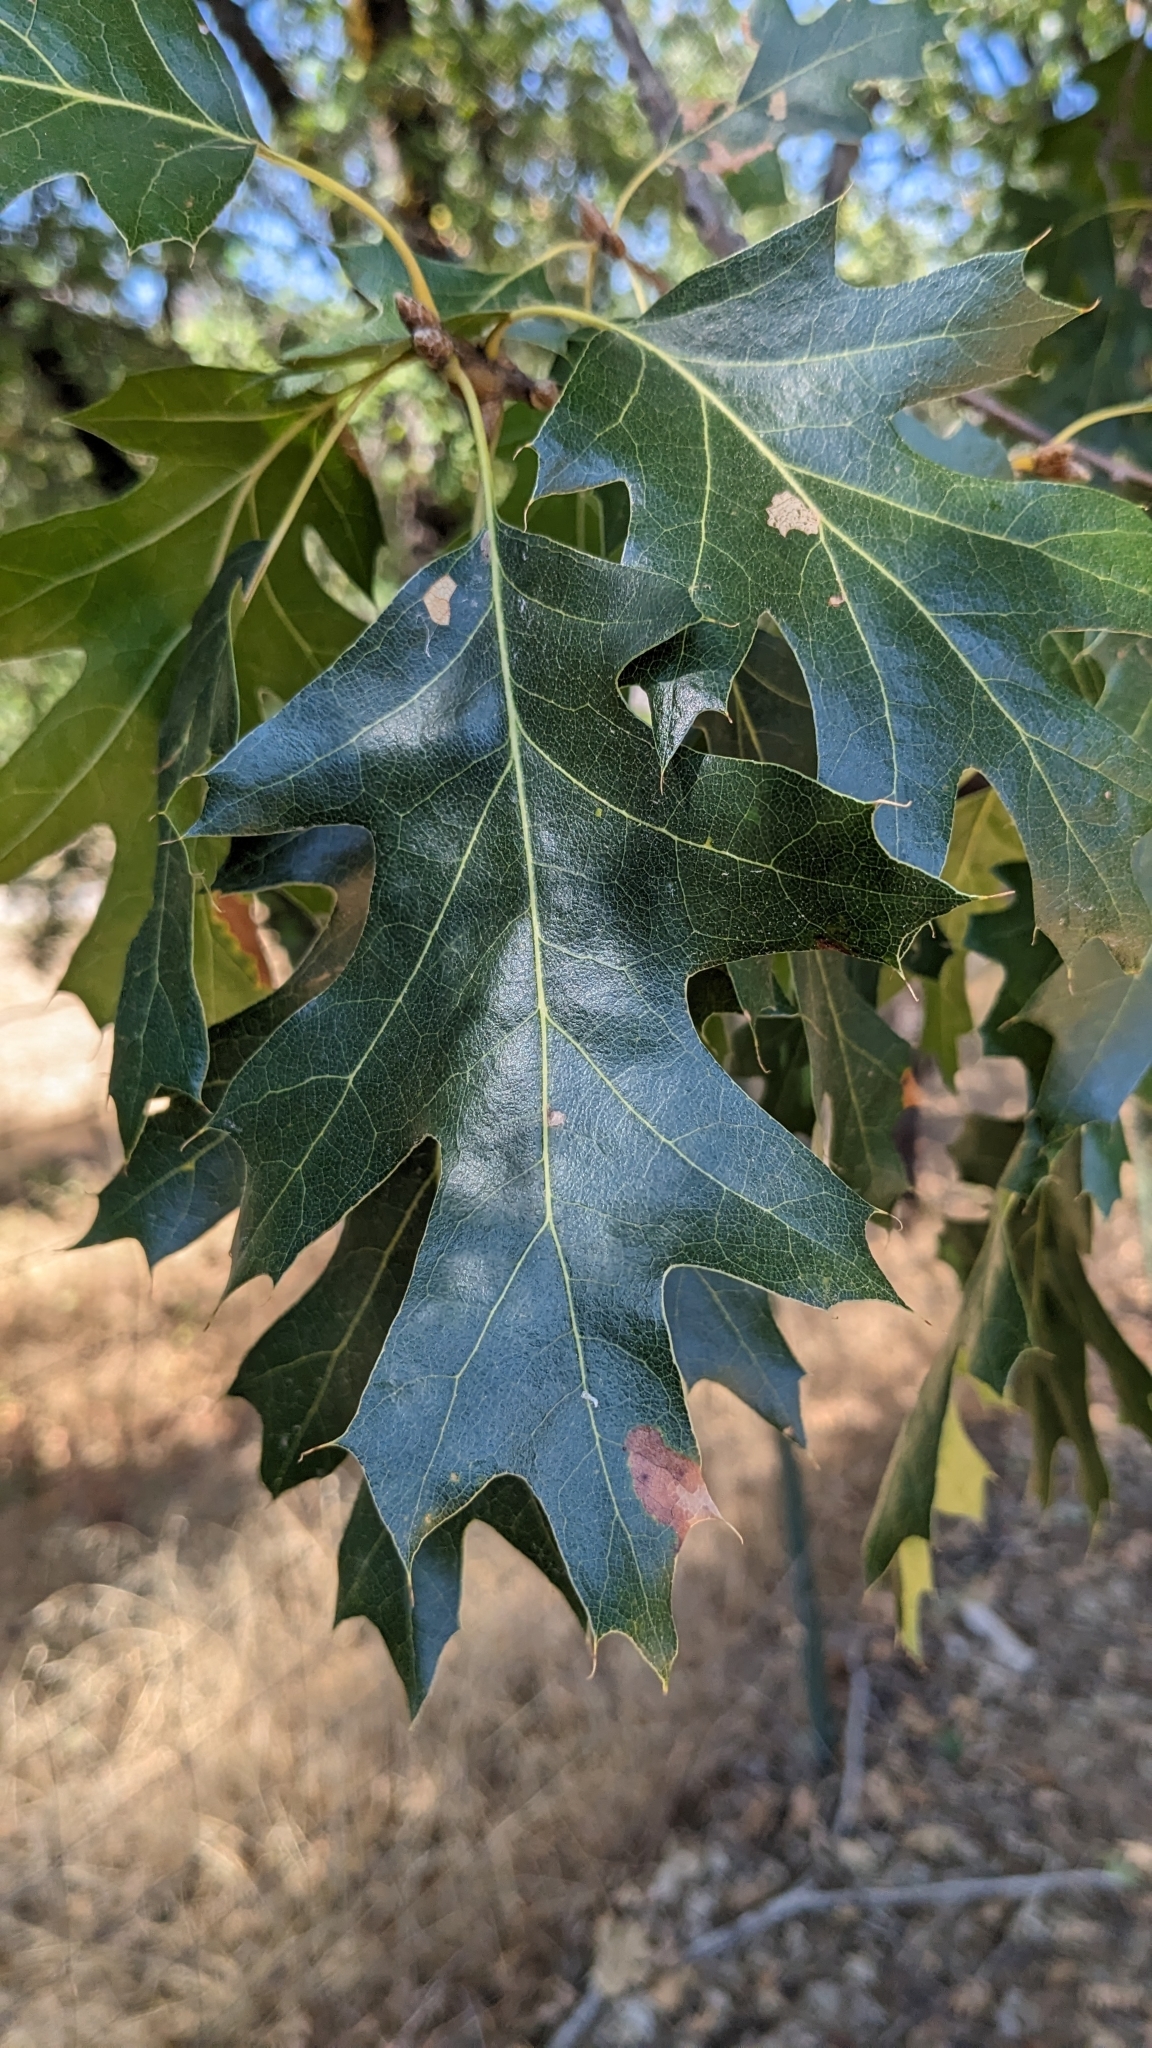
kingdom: Plantae
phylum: Tracheophyta
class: Magnoliopsida
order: Fagales
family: Fagaceae
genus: Quercus
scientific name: Quercus kelloggii
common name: California black oak
